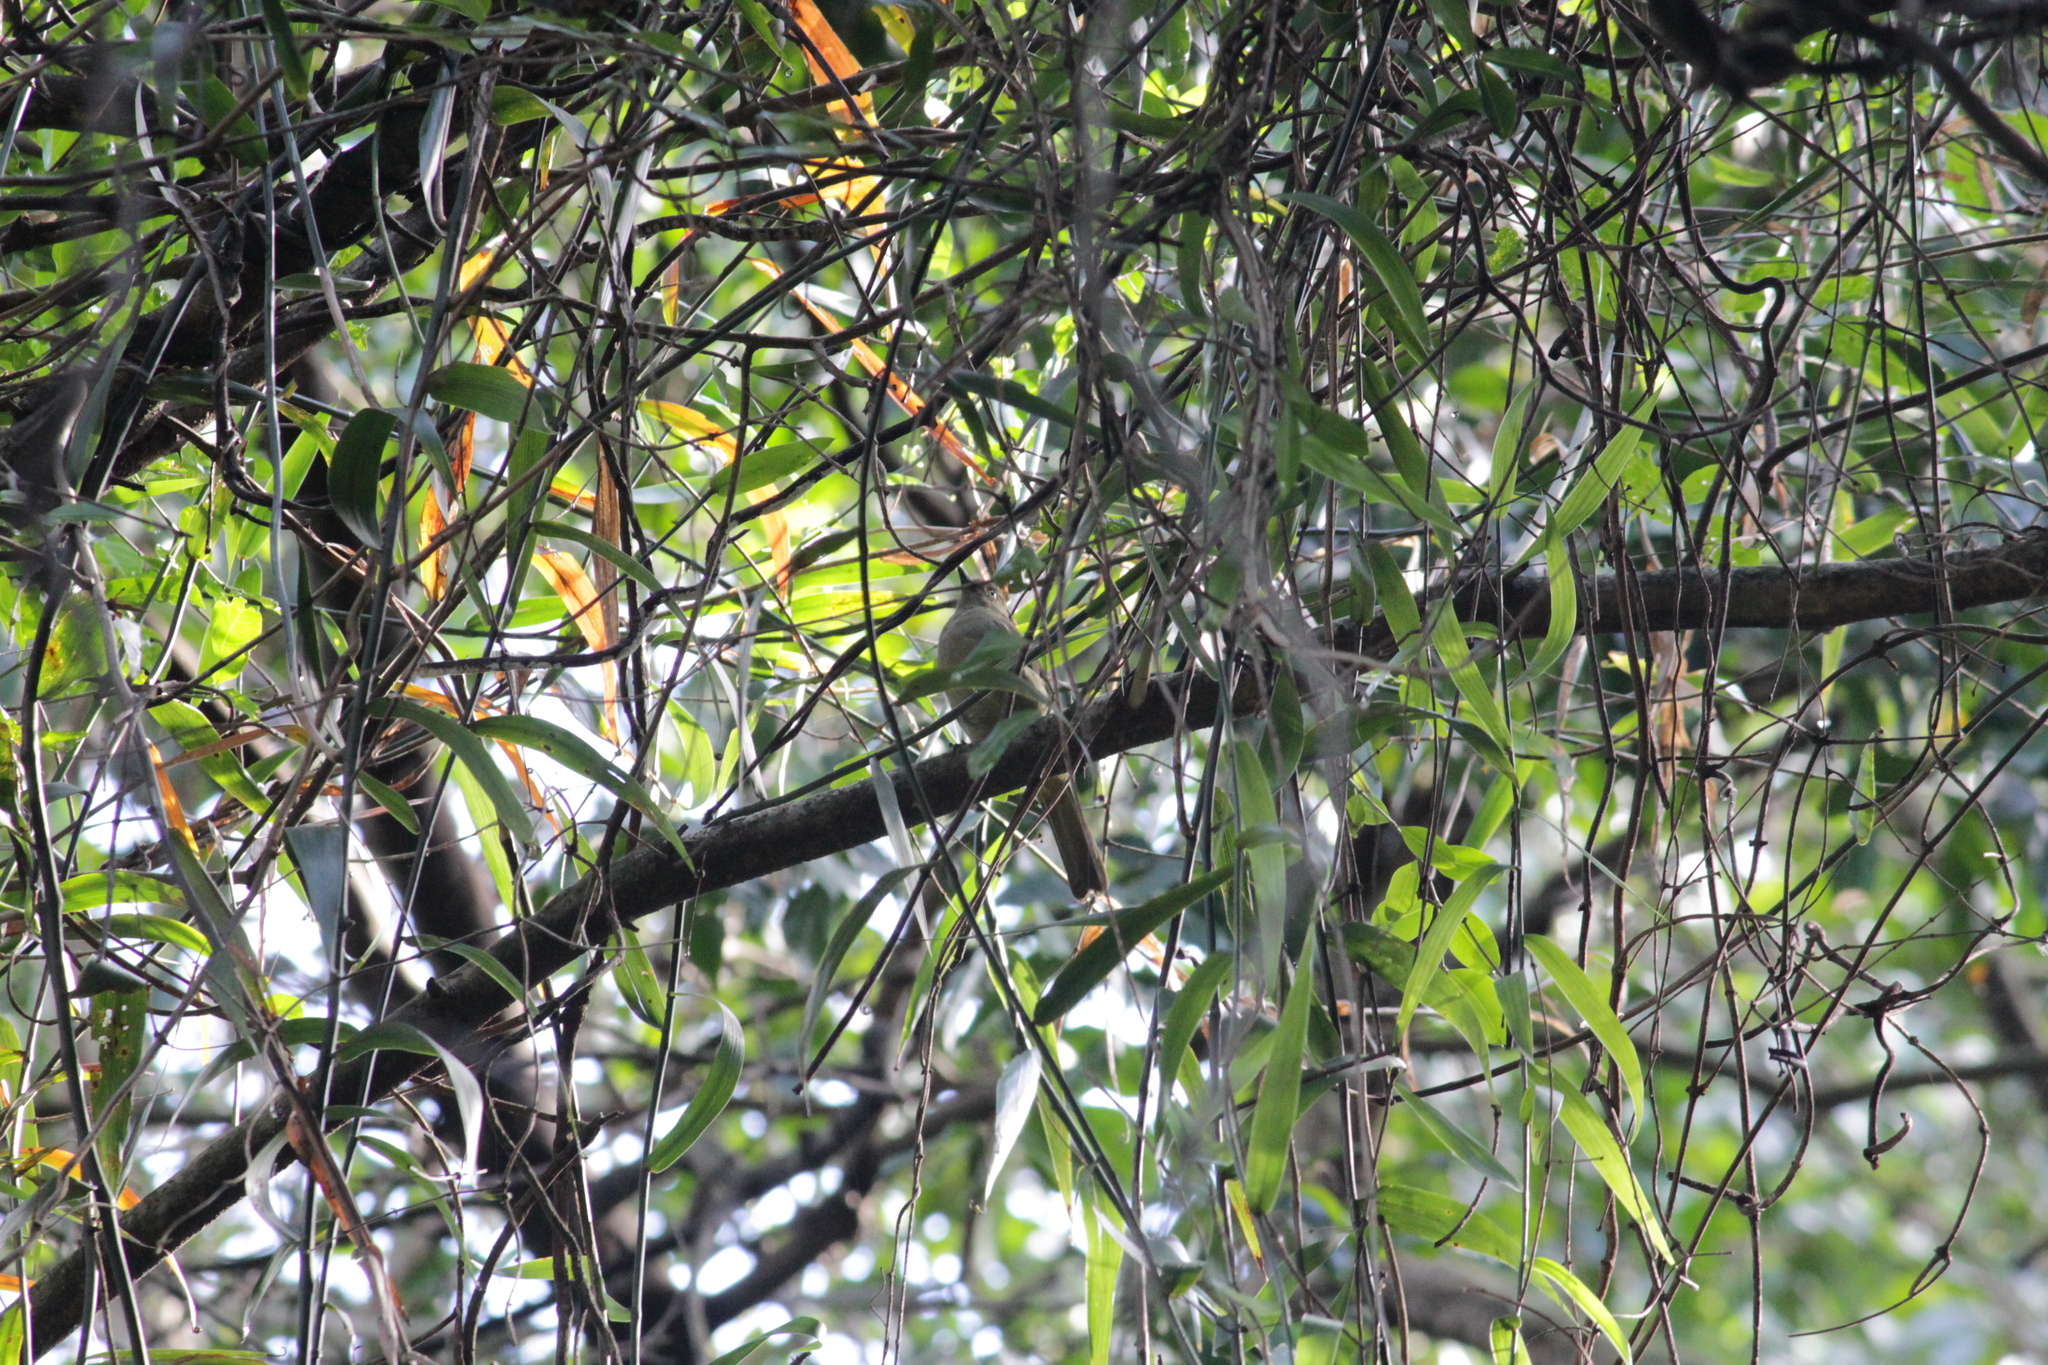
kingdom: Animalia
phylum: Chordata
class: Aves
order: Passeriformes
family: Pycnonotidae
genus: Andropadus
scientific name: Andropadus importunus
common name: Sombre greenbul
